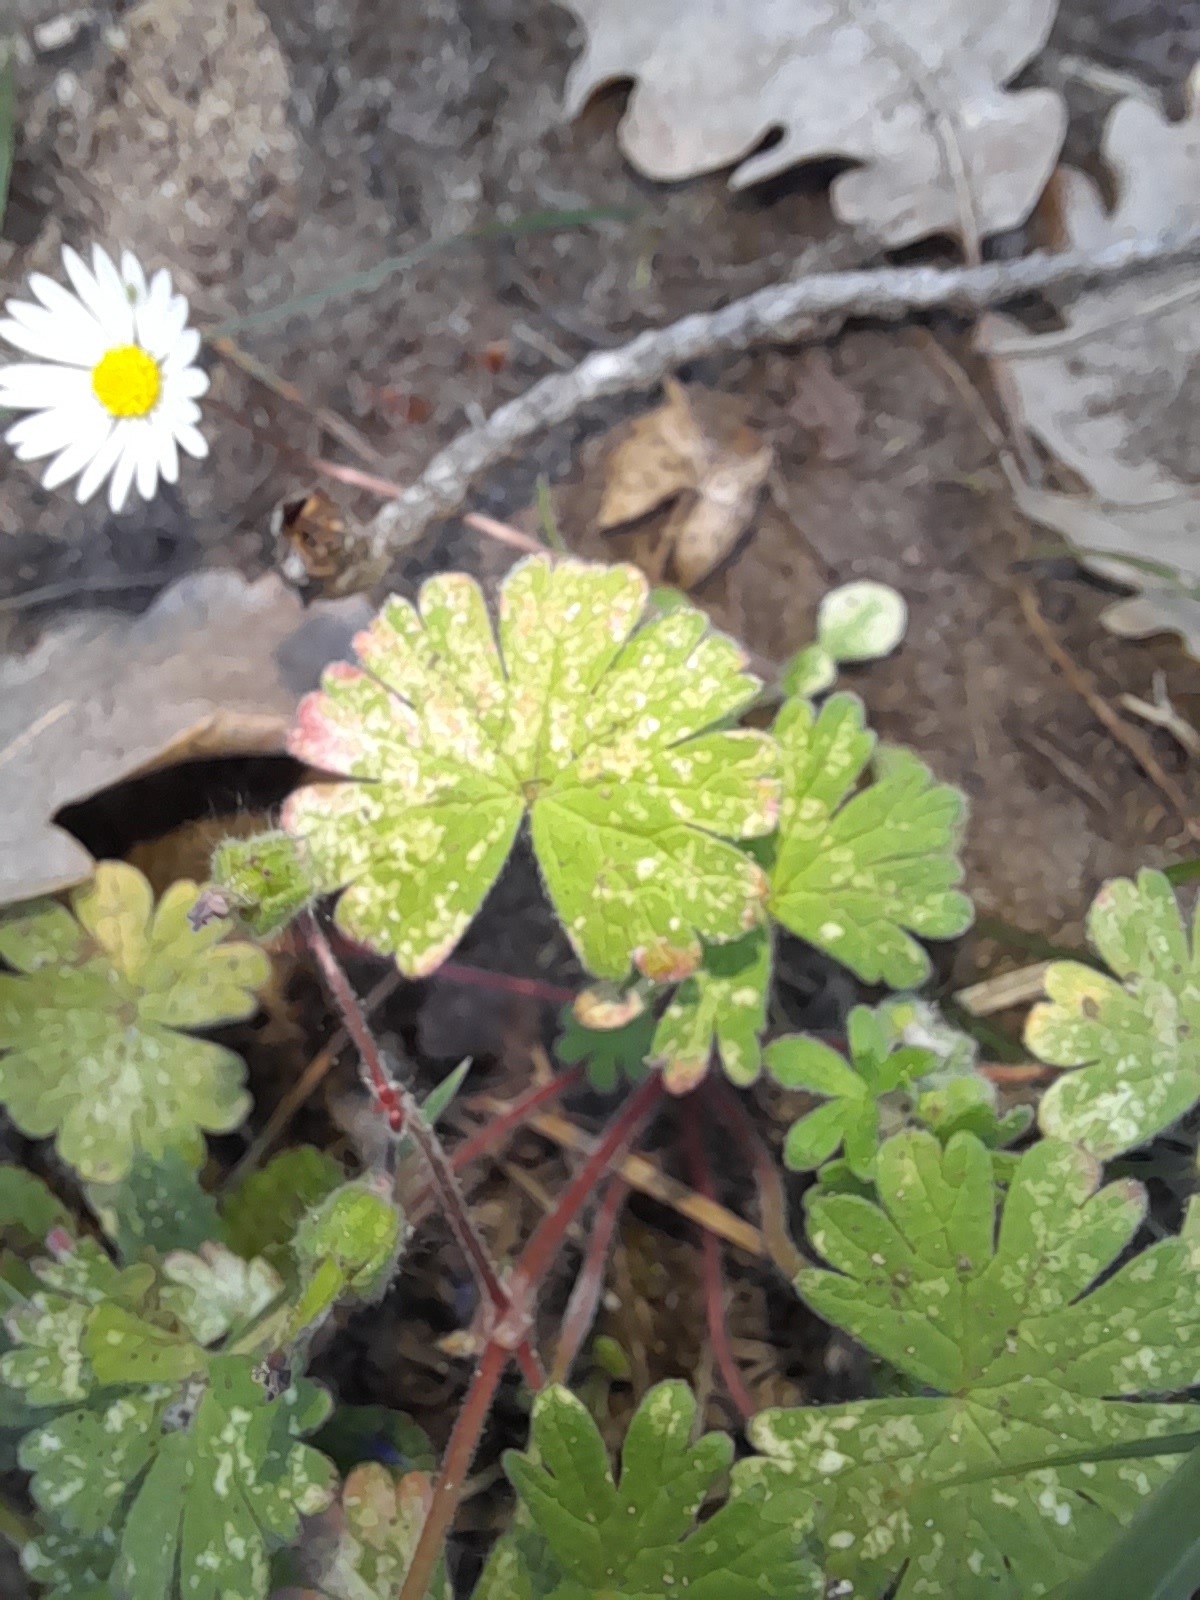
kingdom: Plantae
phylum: Tracheophyta
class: Magnoliopsida
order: Geraniales
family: Geraniaceae
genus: Geranium
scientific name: Geranium molle
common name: Dove's-foot crane's-bill
